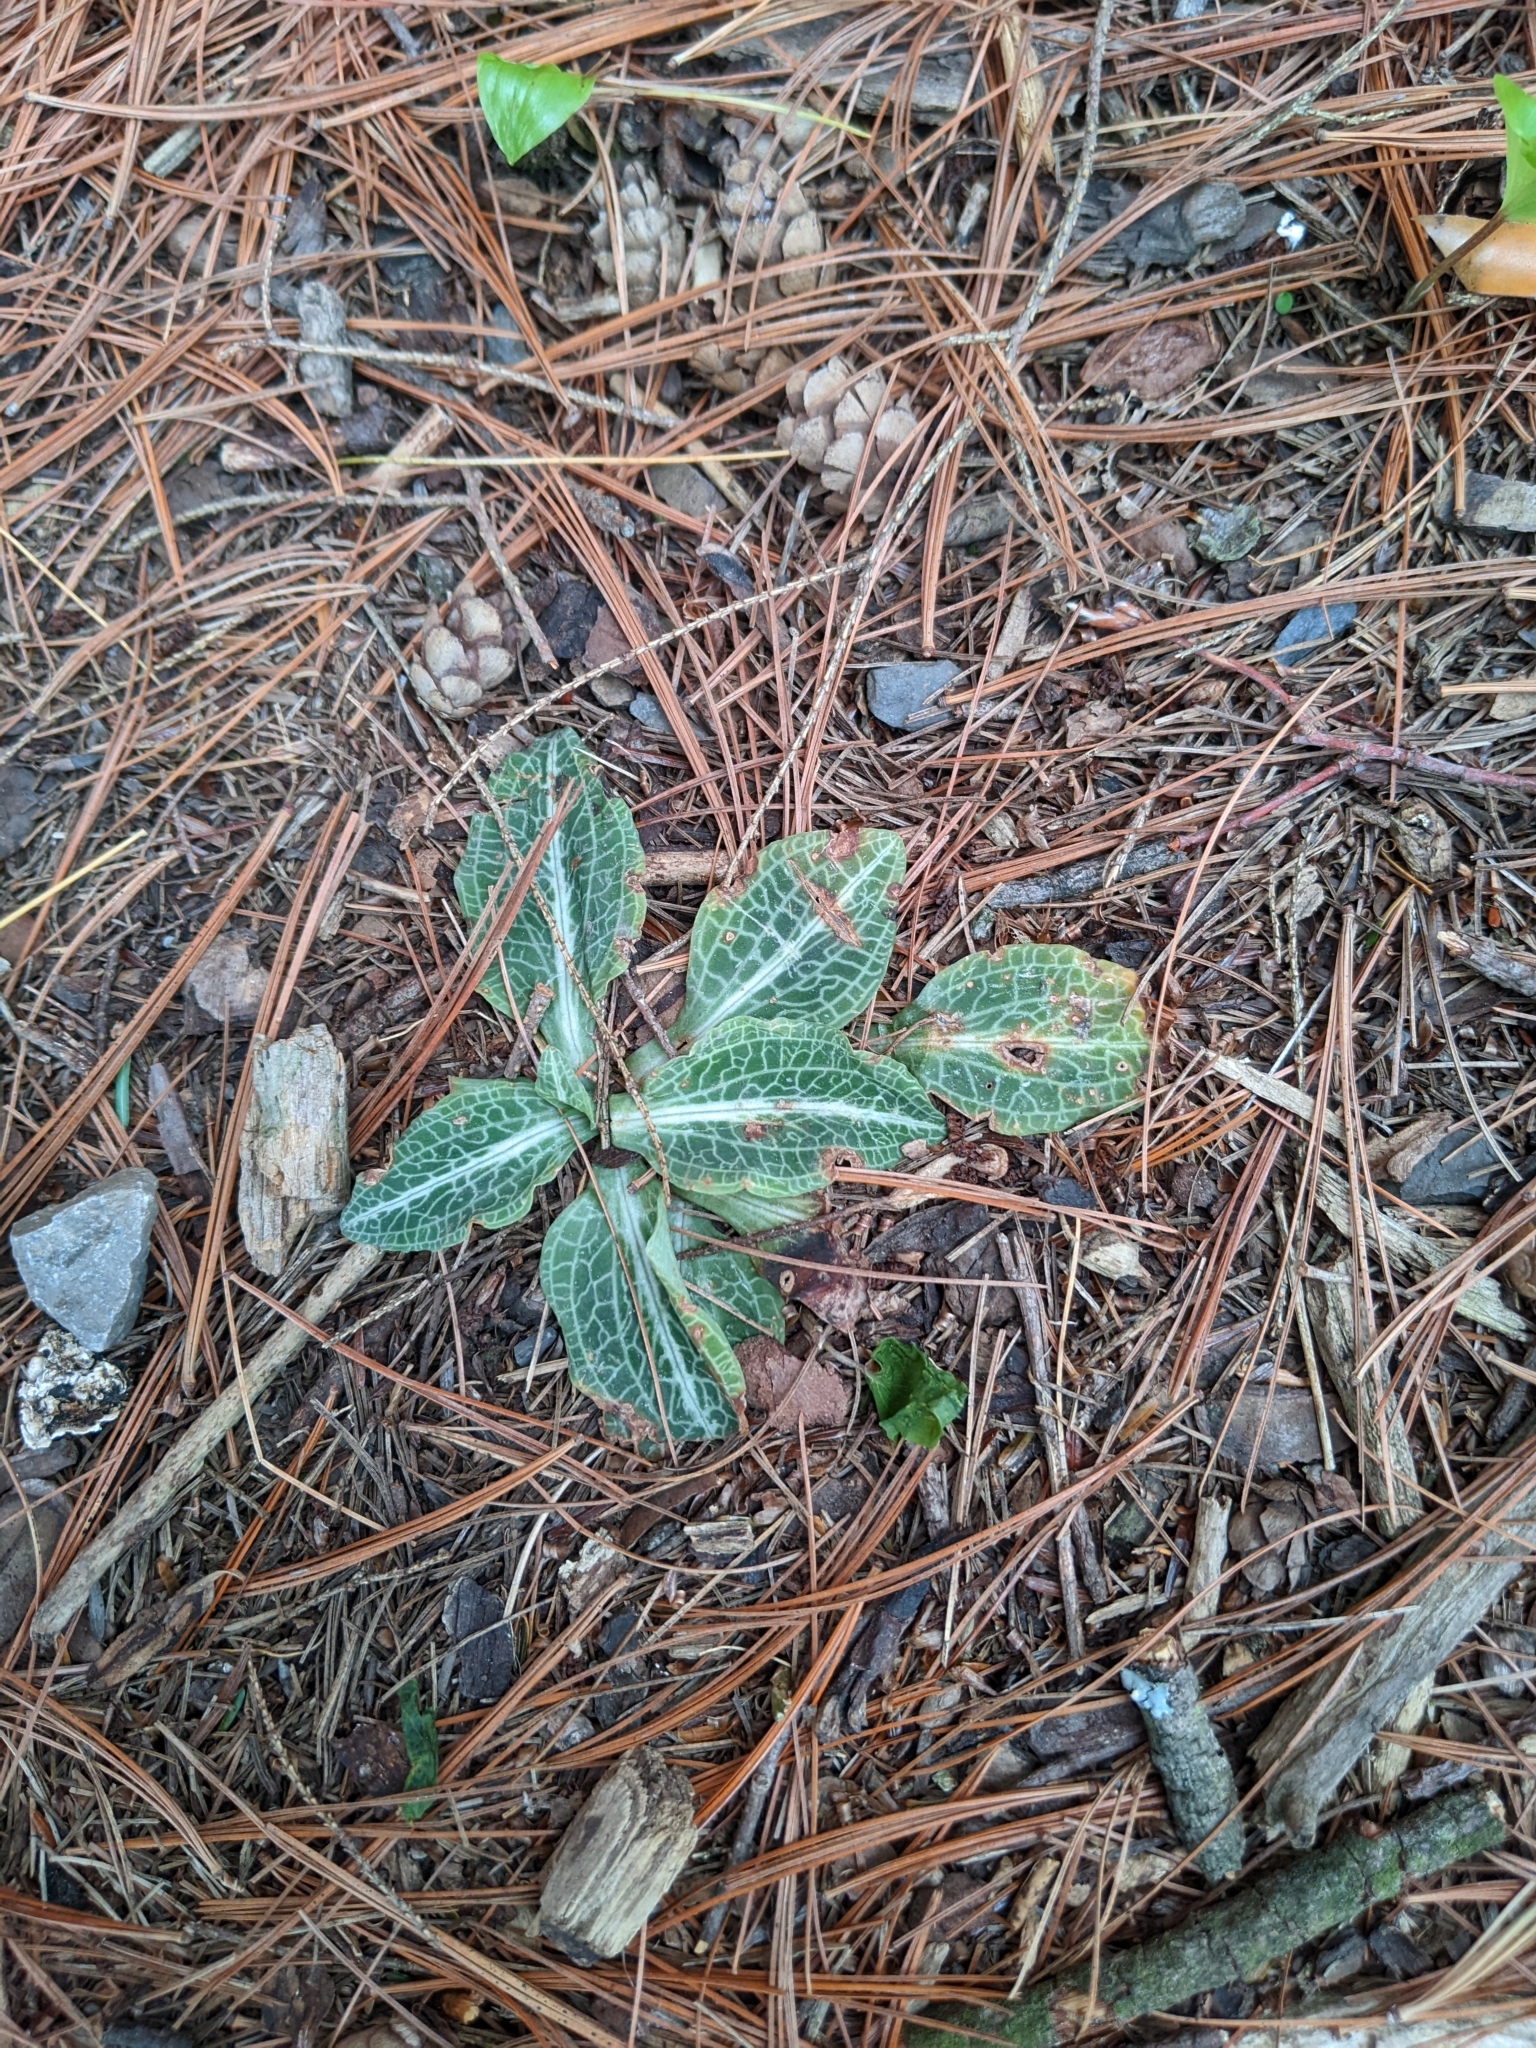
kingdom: Plantae
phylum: Tracheophyta
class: Liliopsida
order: Asparagales
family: Orchidaceae
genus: Goodyera
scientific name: Goodyera pubescens
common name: Downy rattlesnake-plantain
